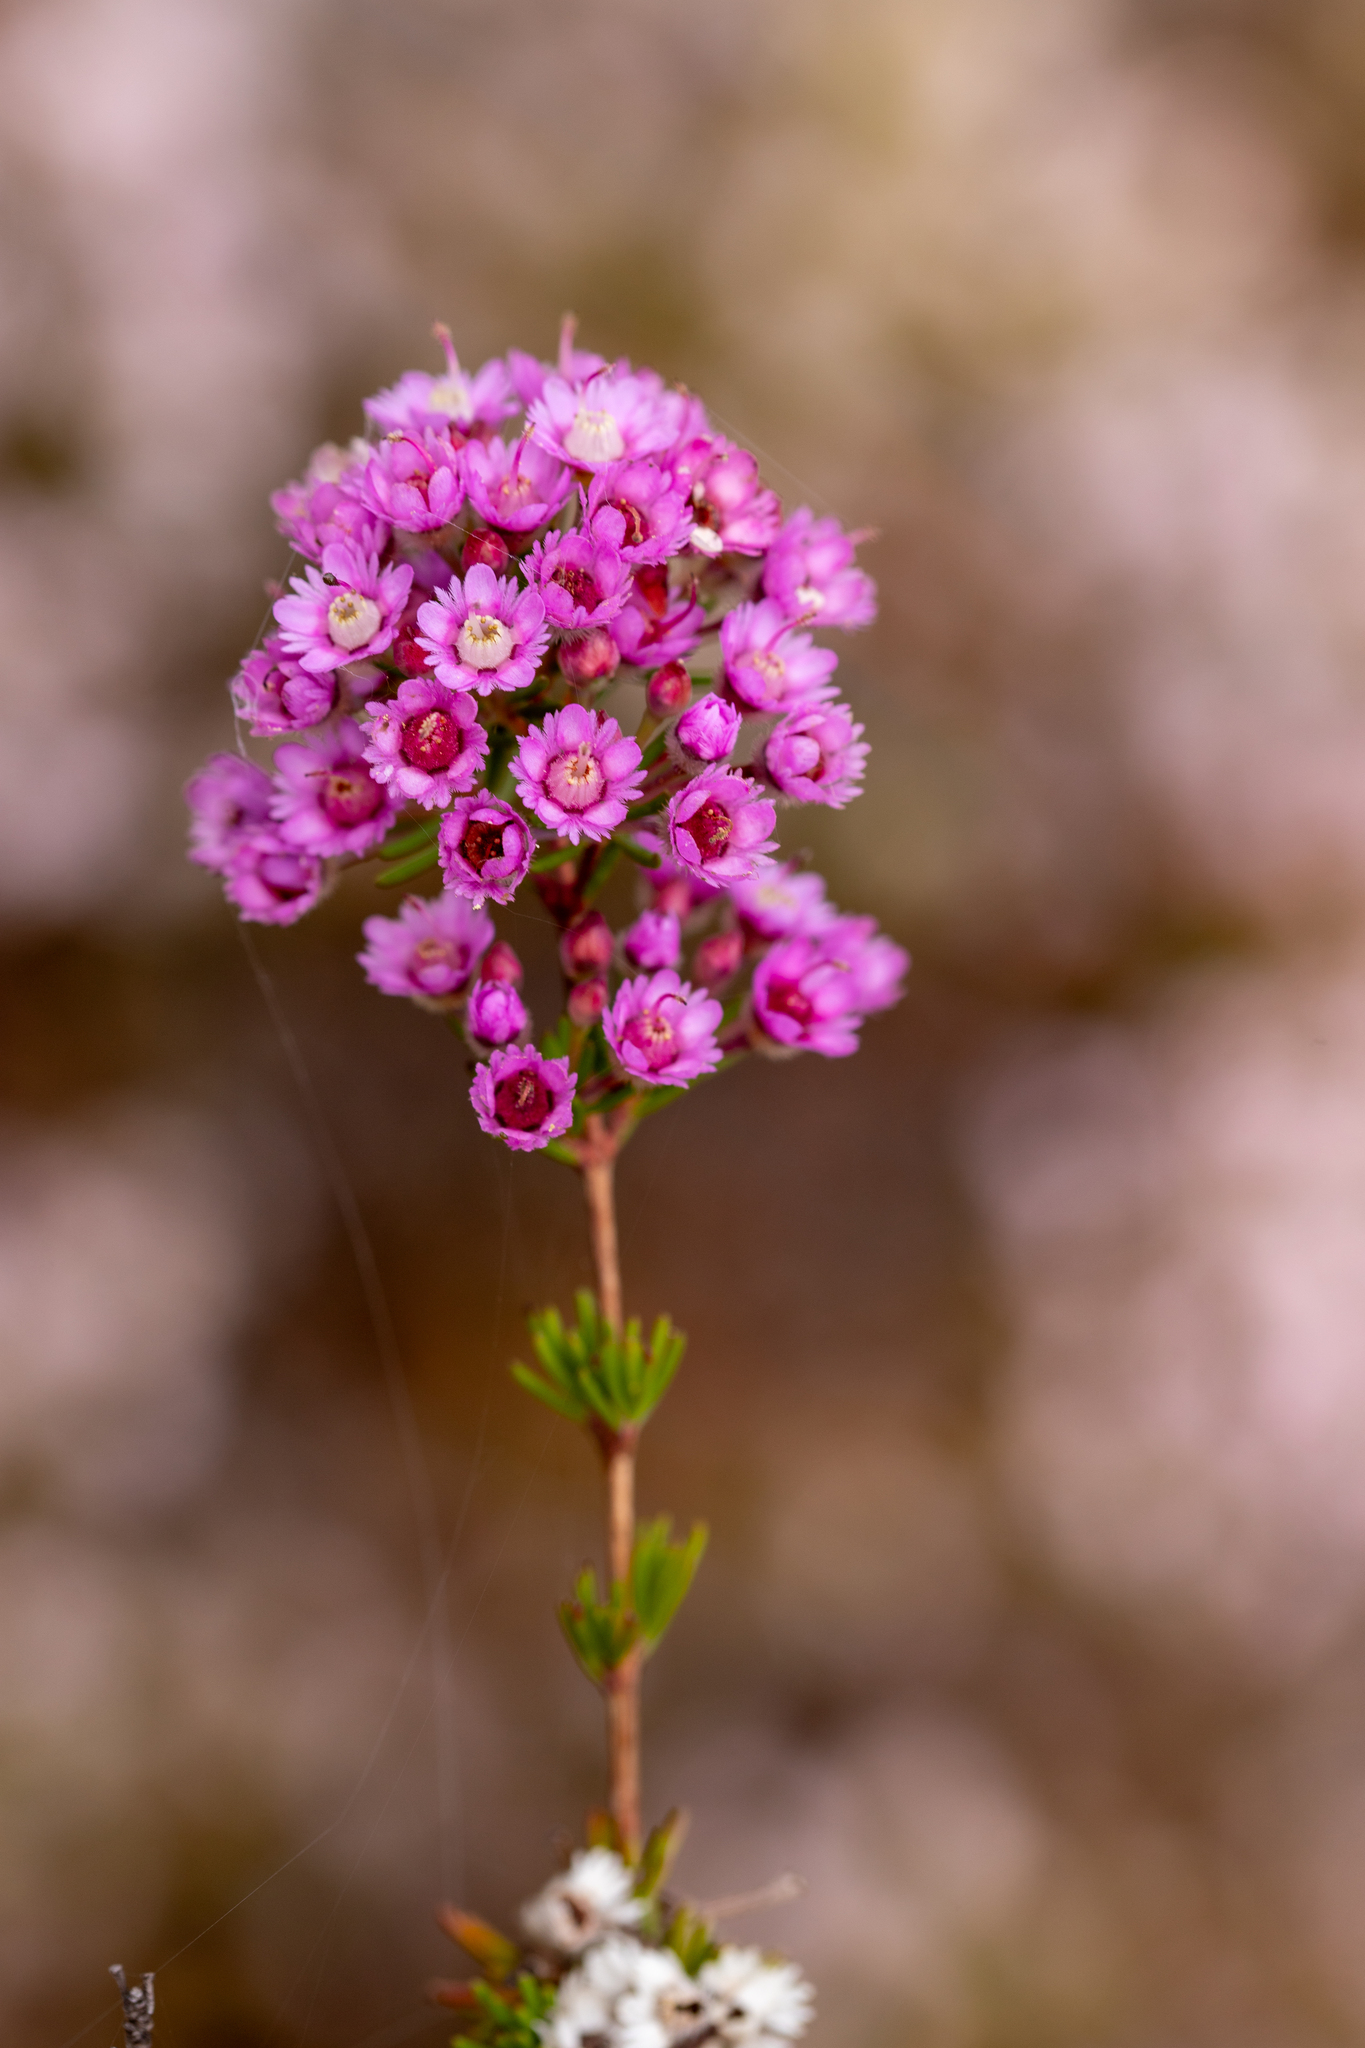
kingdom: Plantae
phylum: Tracheophyta
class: Magnoliopsida
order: Myrtales
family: Myrtaceae
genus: Verticordia
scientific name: Verticordia plumosa
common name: Plume feather-flower
